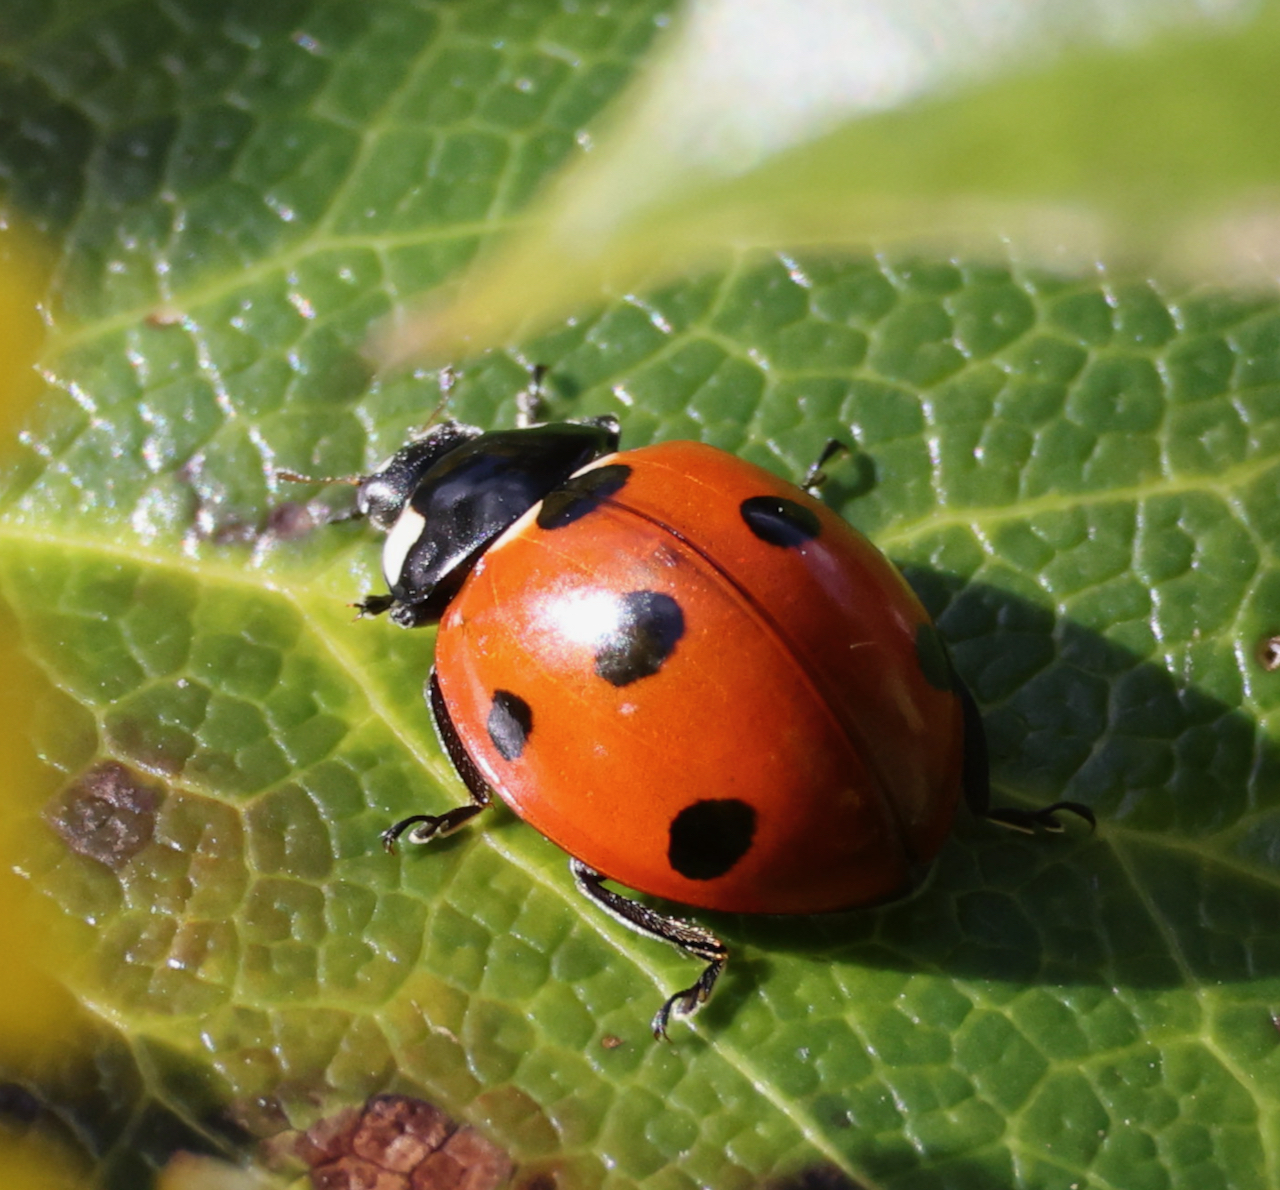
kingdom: Animalia
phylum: Arthropoda
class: Insecta
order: Coleoptera
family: Coccinellidae
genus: Coccinella
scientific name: Coccinella septempunctata
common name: Sevenspotted lady beetle
